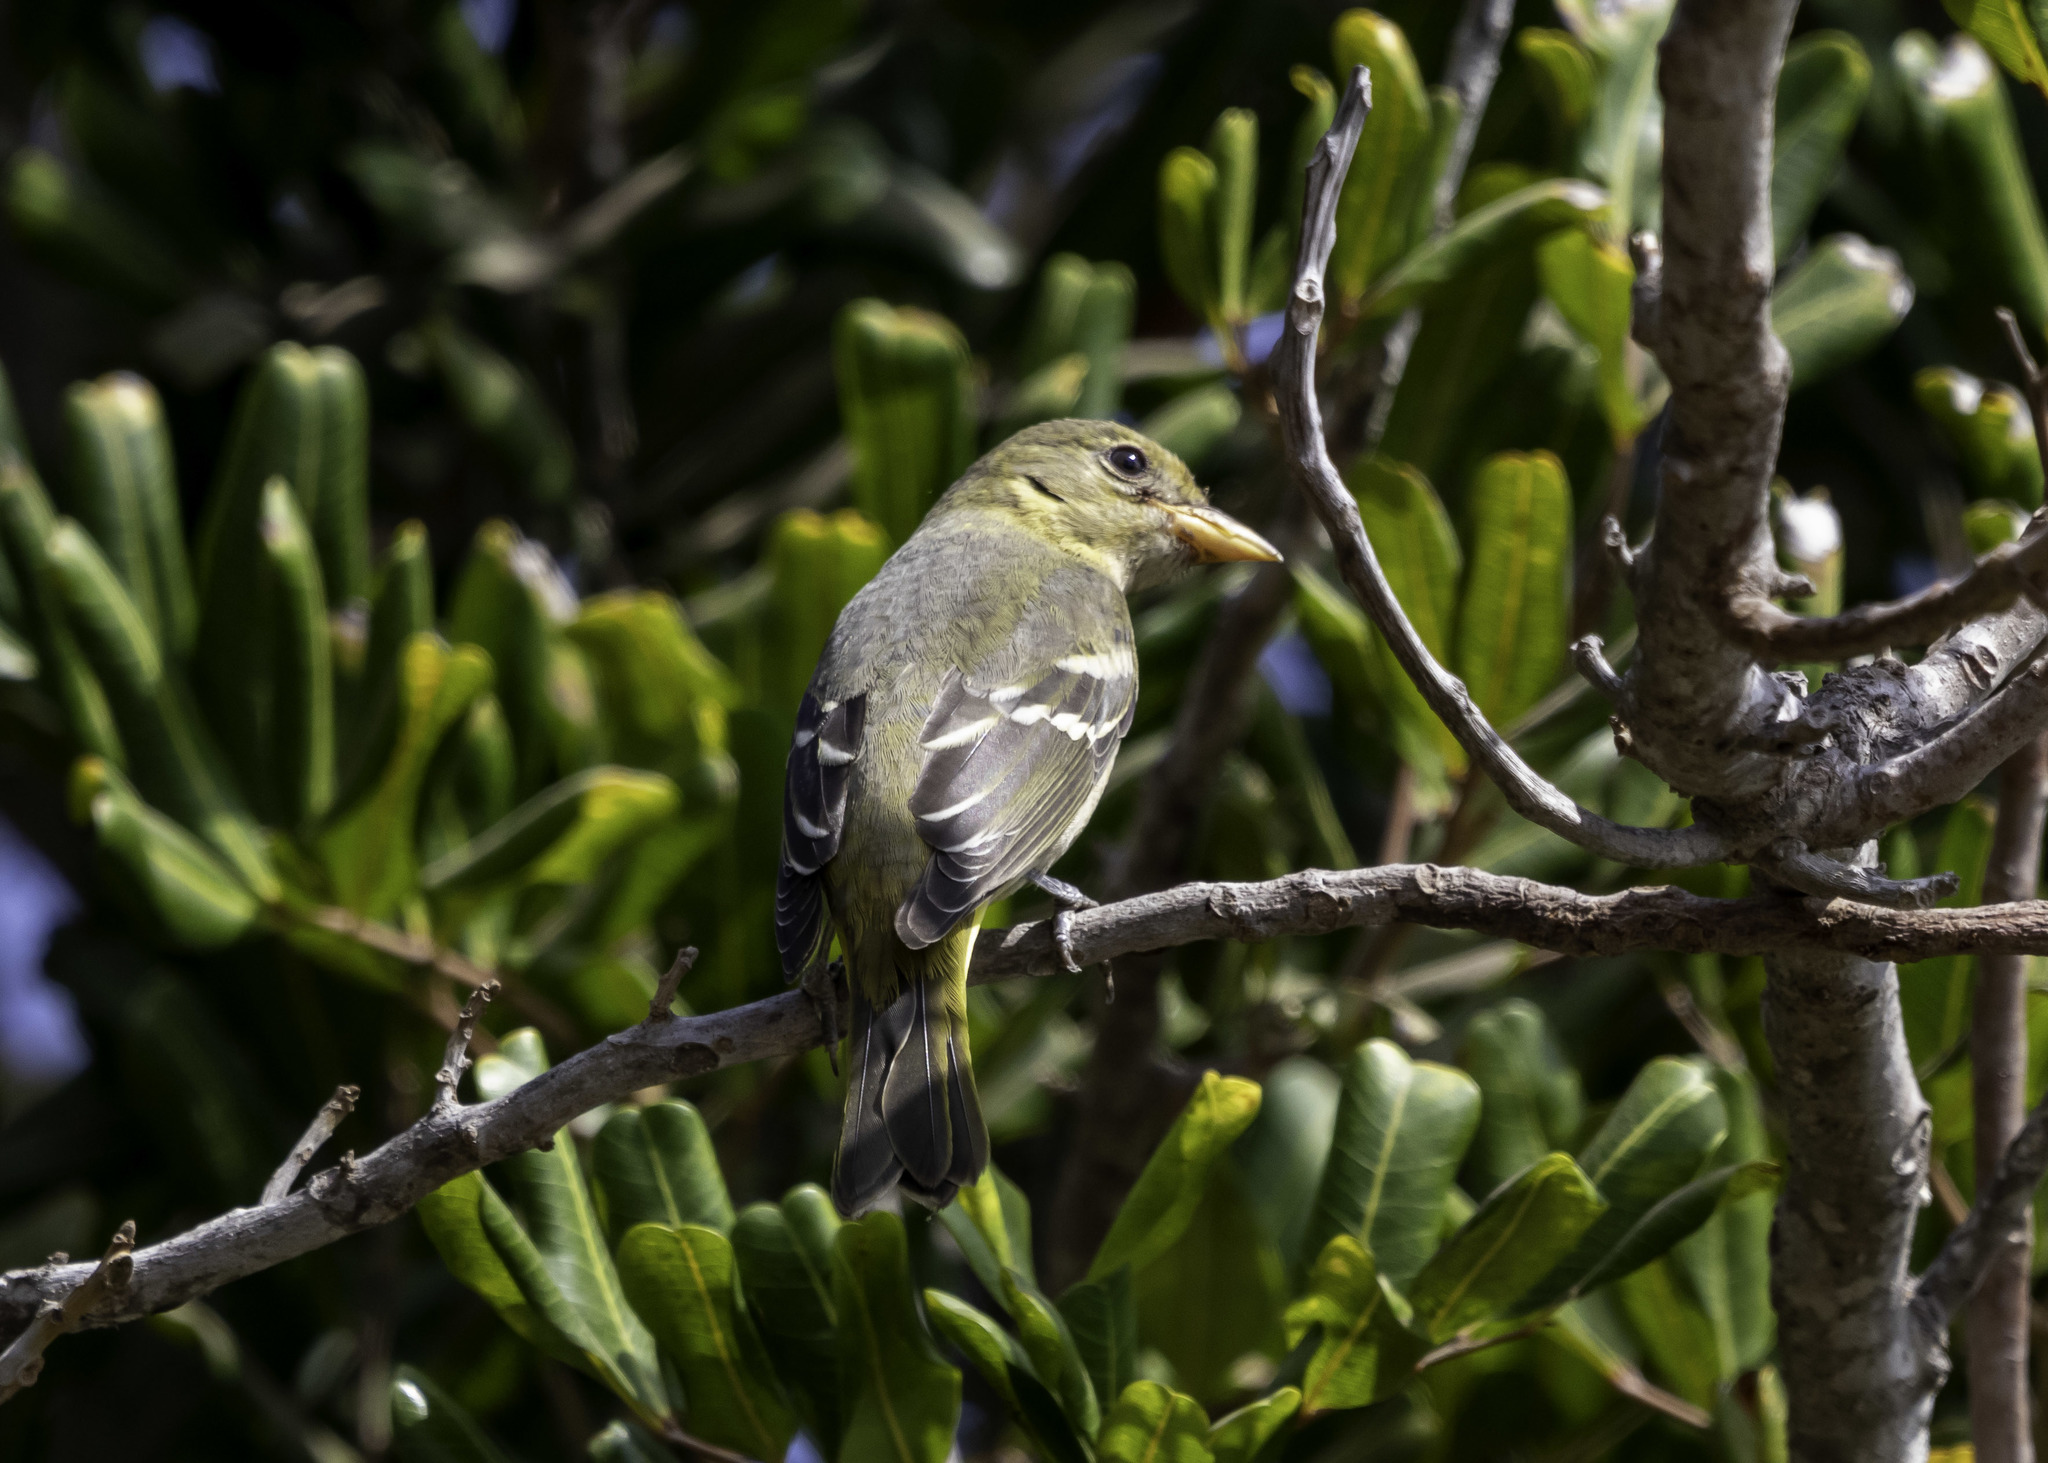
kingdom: Animalia
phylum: Chordata
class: Aves
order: Passeriformes
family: Cardinalidae
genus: Piranga
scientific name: Piranga ludoviciana
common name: Western tanager
